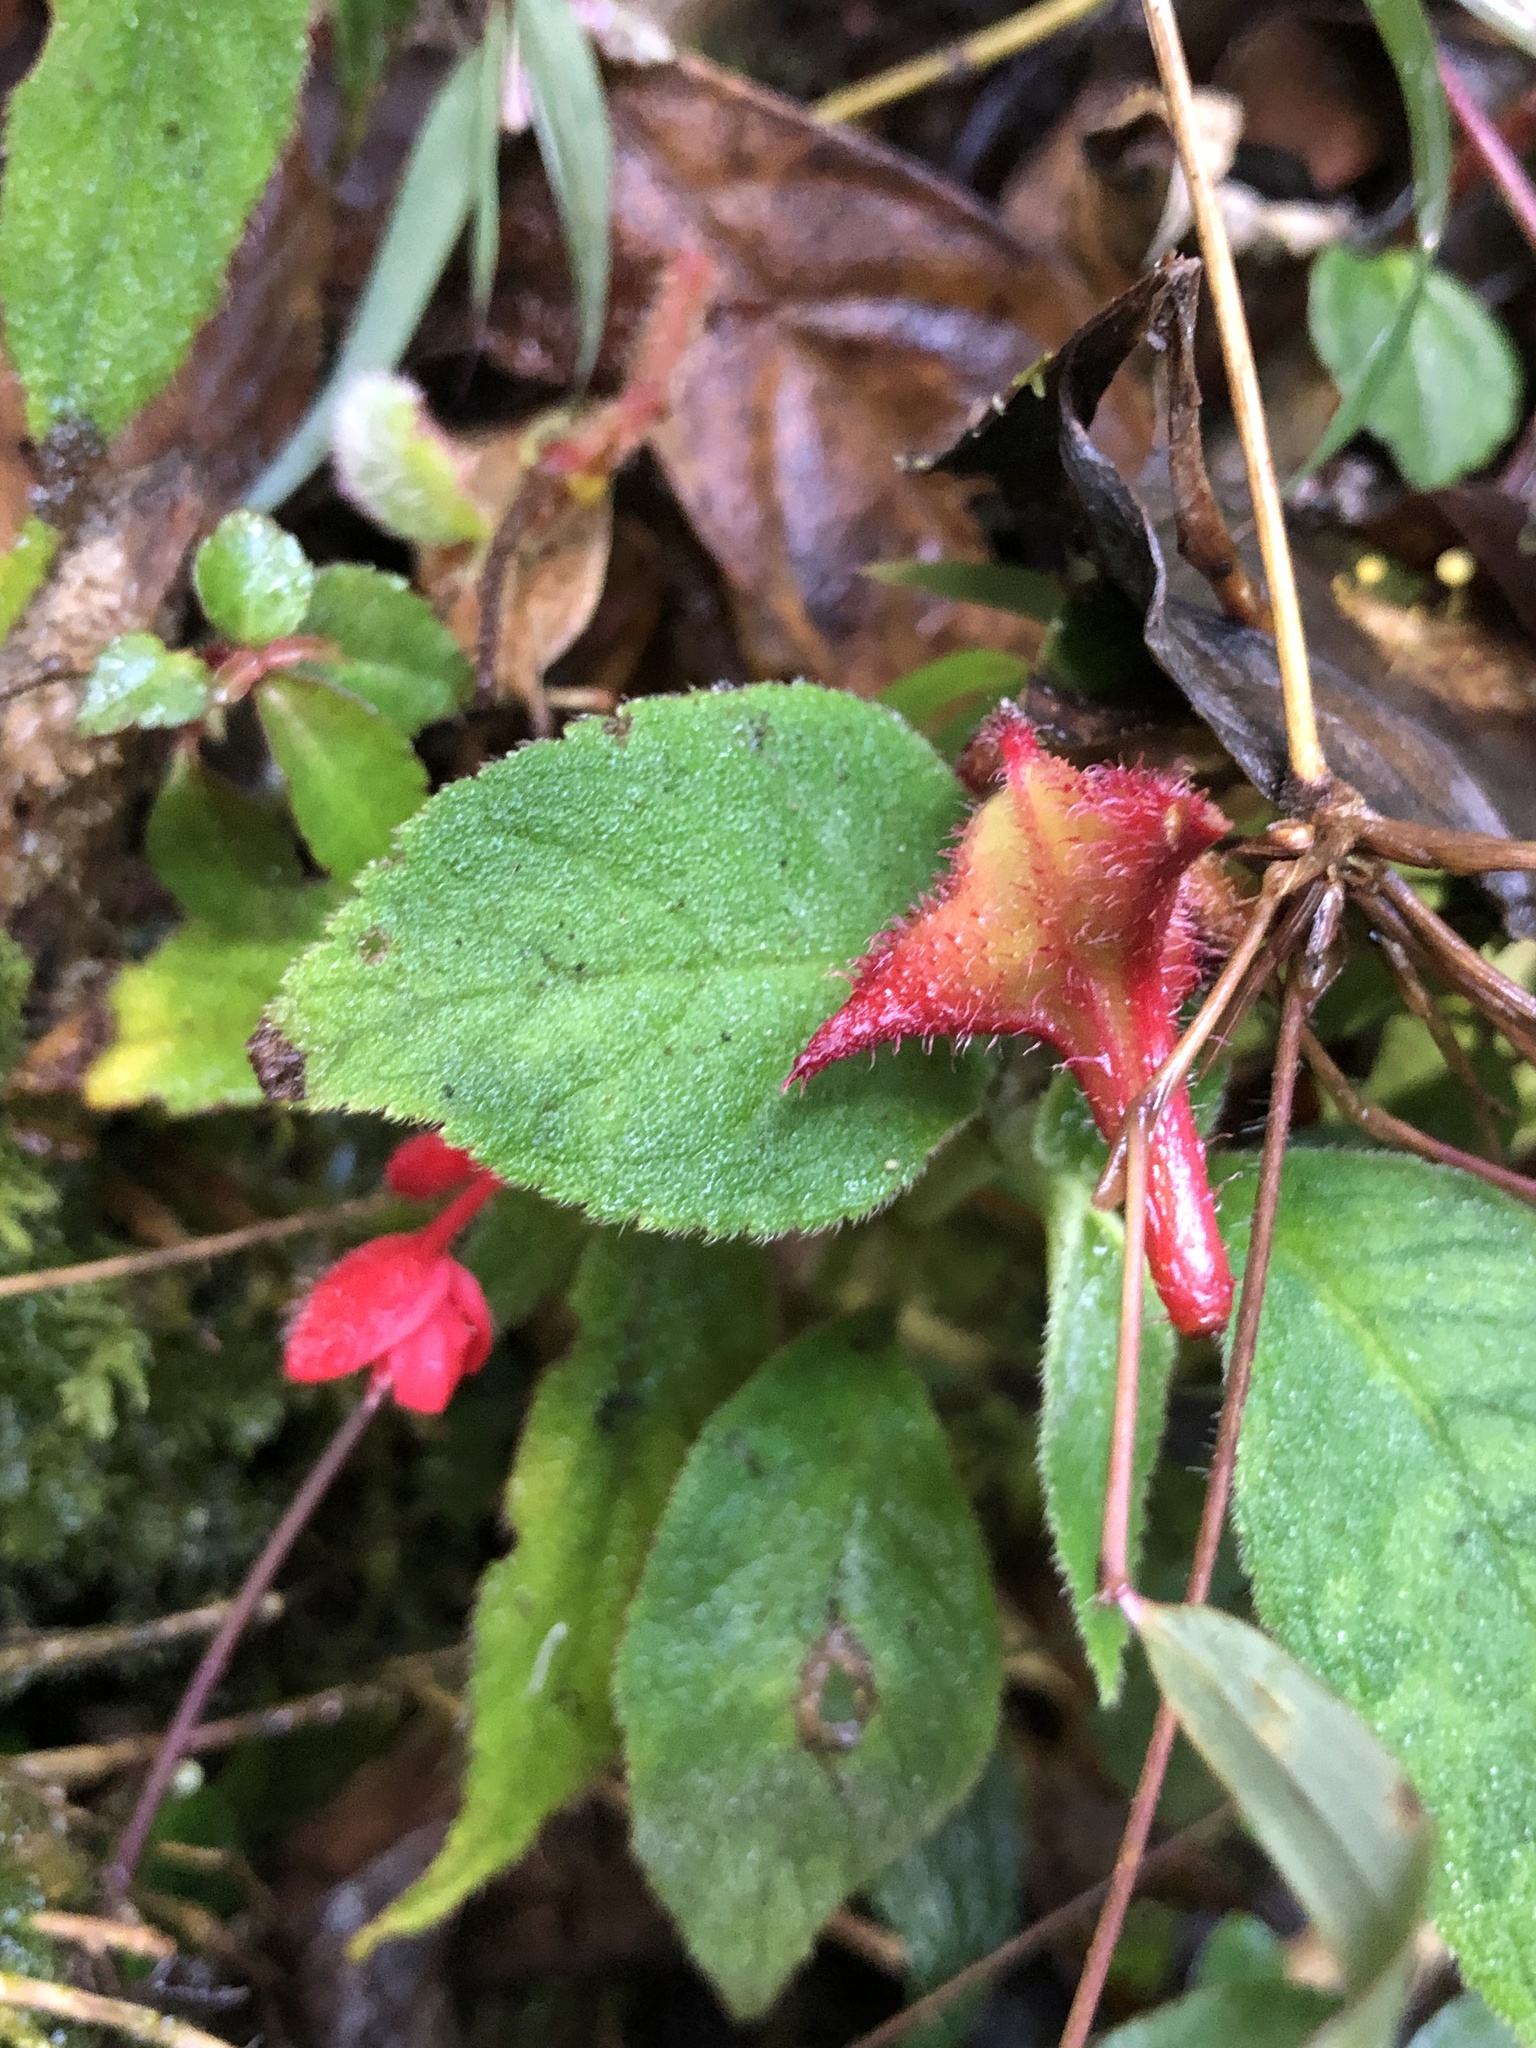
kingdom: Plantae
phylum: Tracheophyta
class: Magnoliopsida
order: Cucurbitales
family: Begoniaceae
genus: Begonia
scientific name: Begonia urticae
